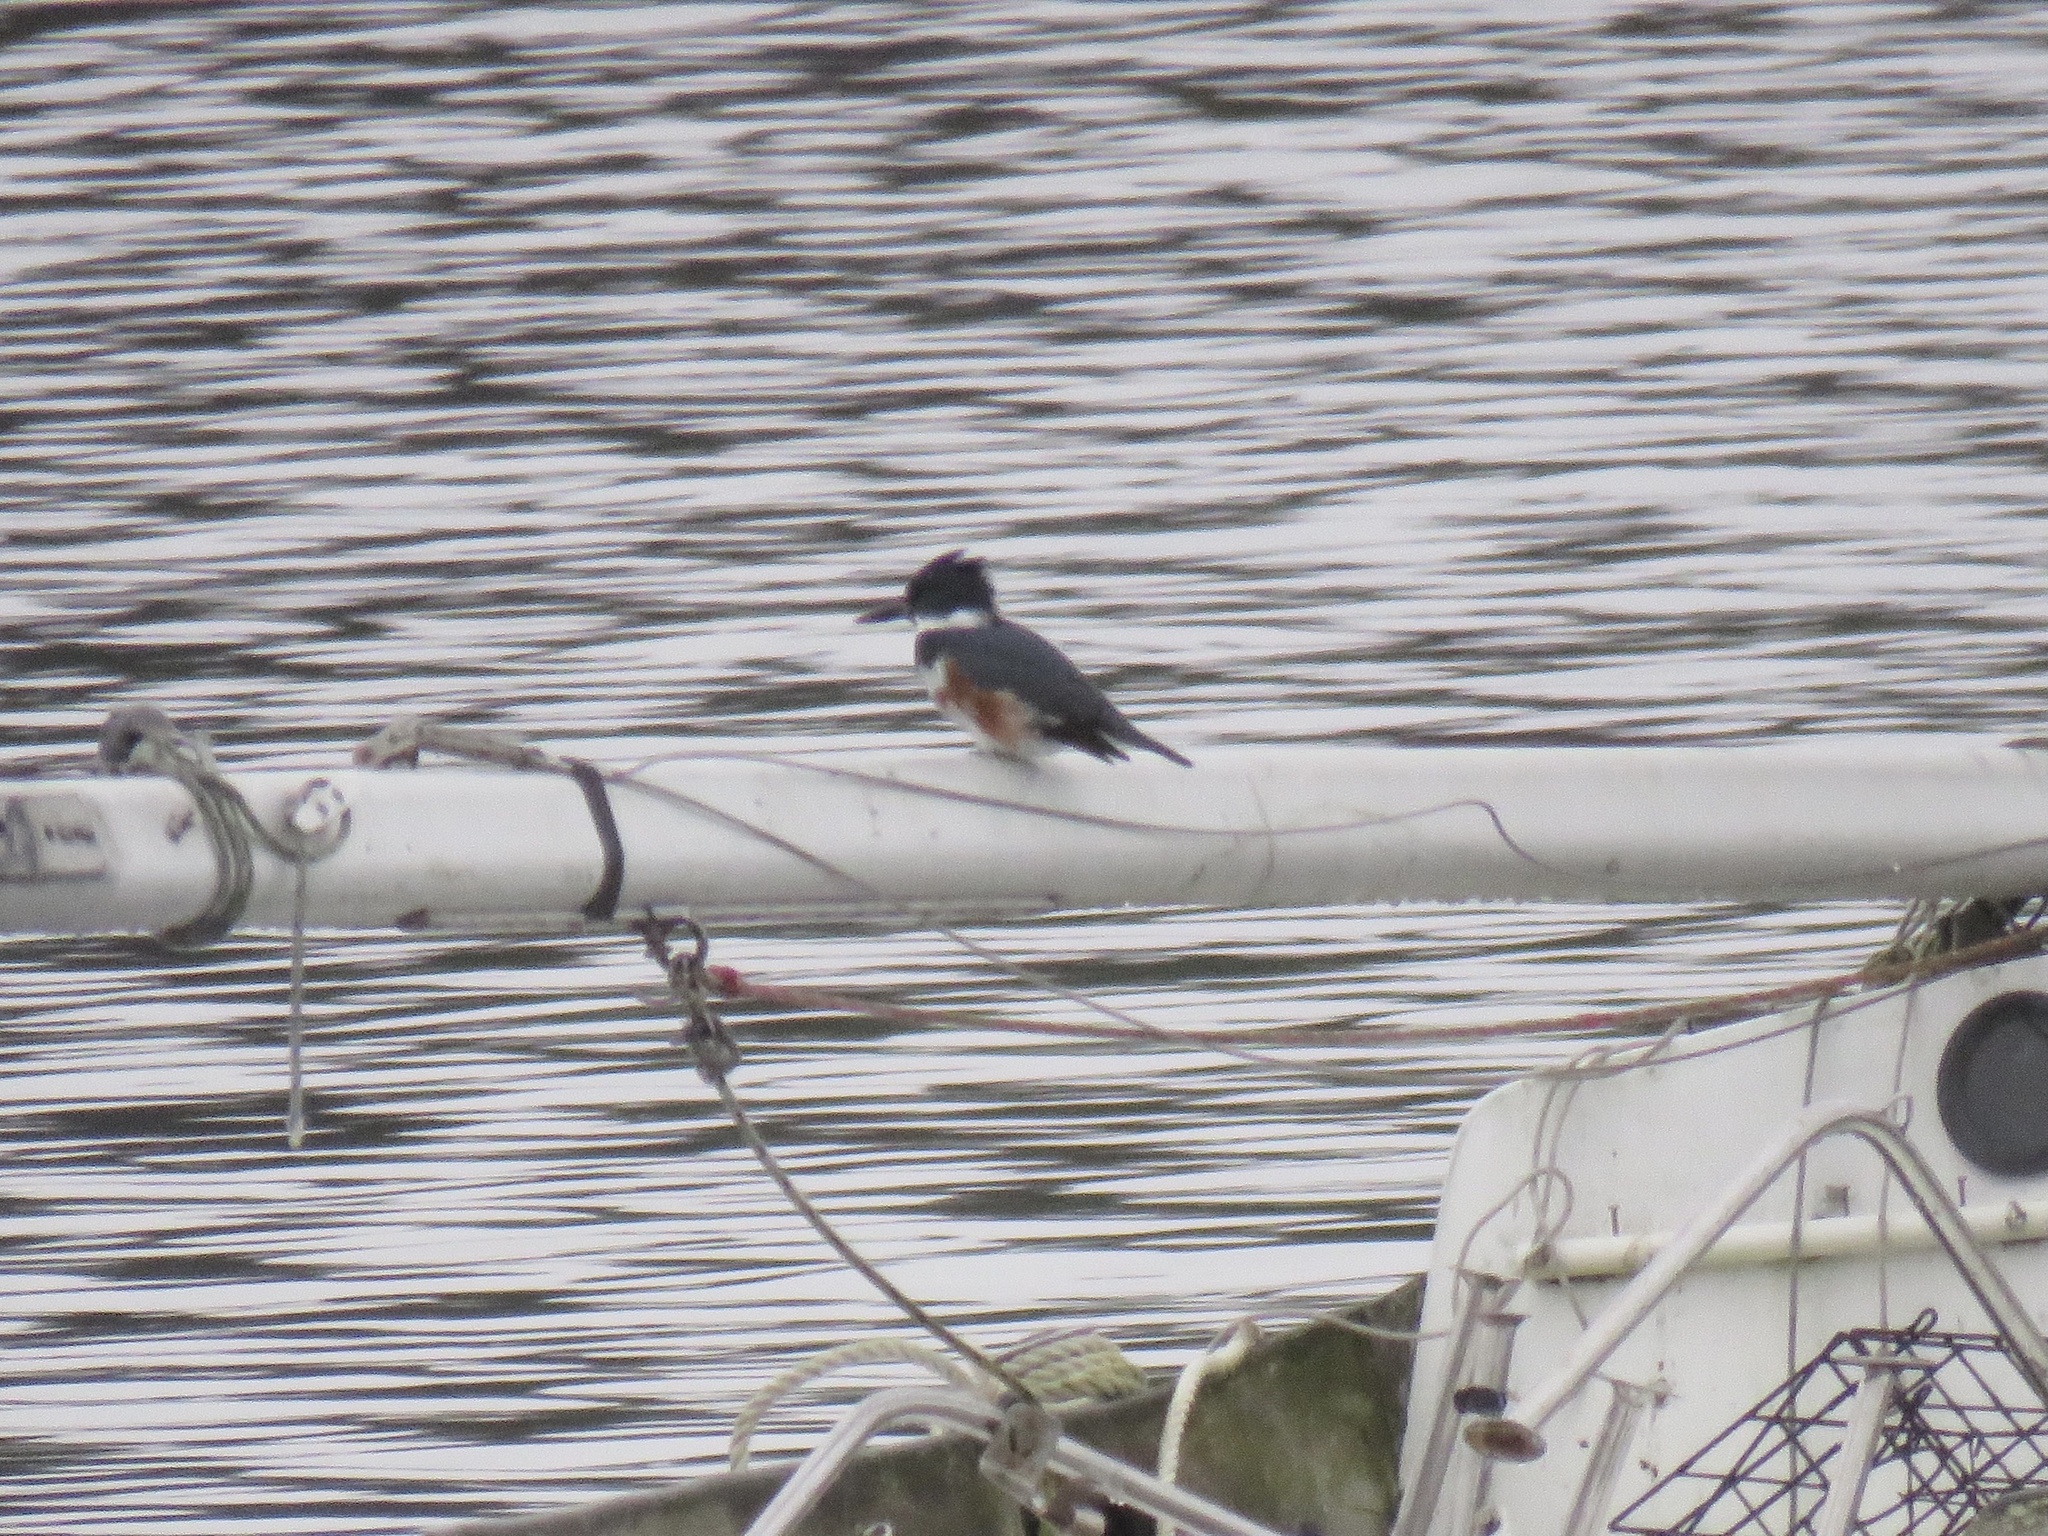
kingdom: Animalia
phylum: Chordata
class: Aves
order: Coraciiformes
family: Alcedinidae
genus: Megaceryle
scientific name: Megaceryle alcyon
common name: Belted kingfisher
